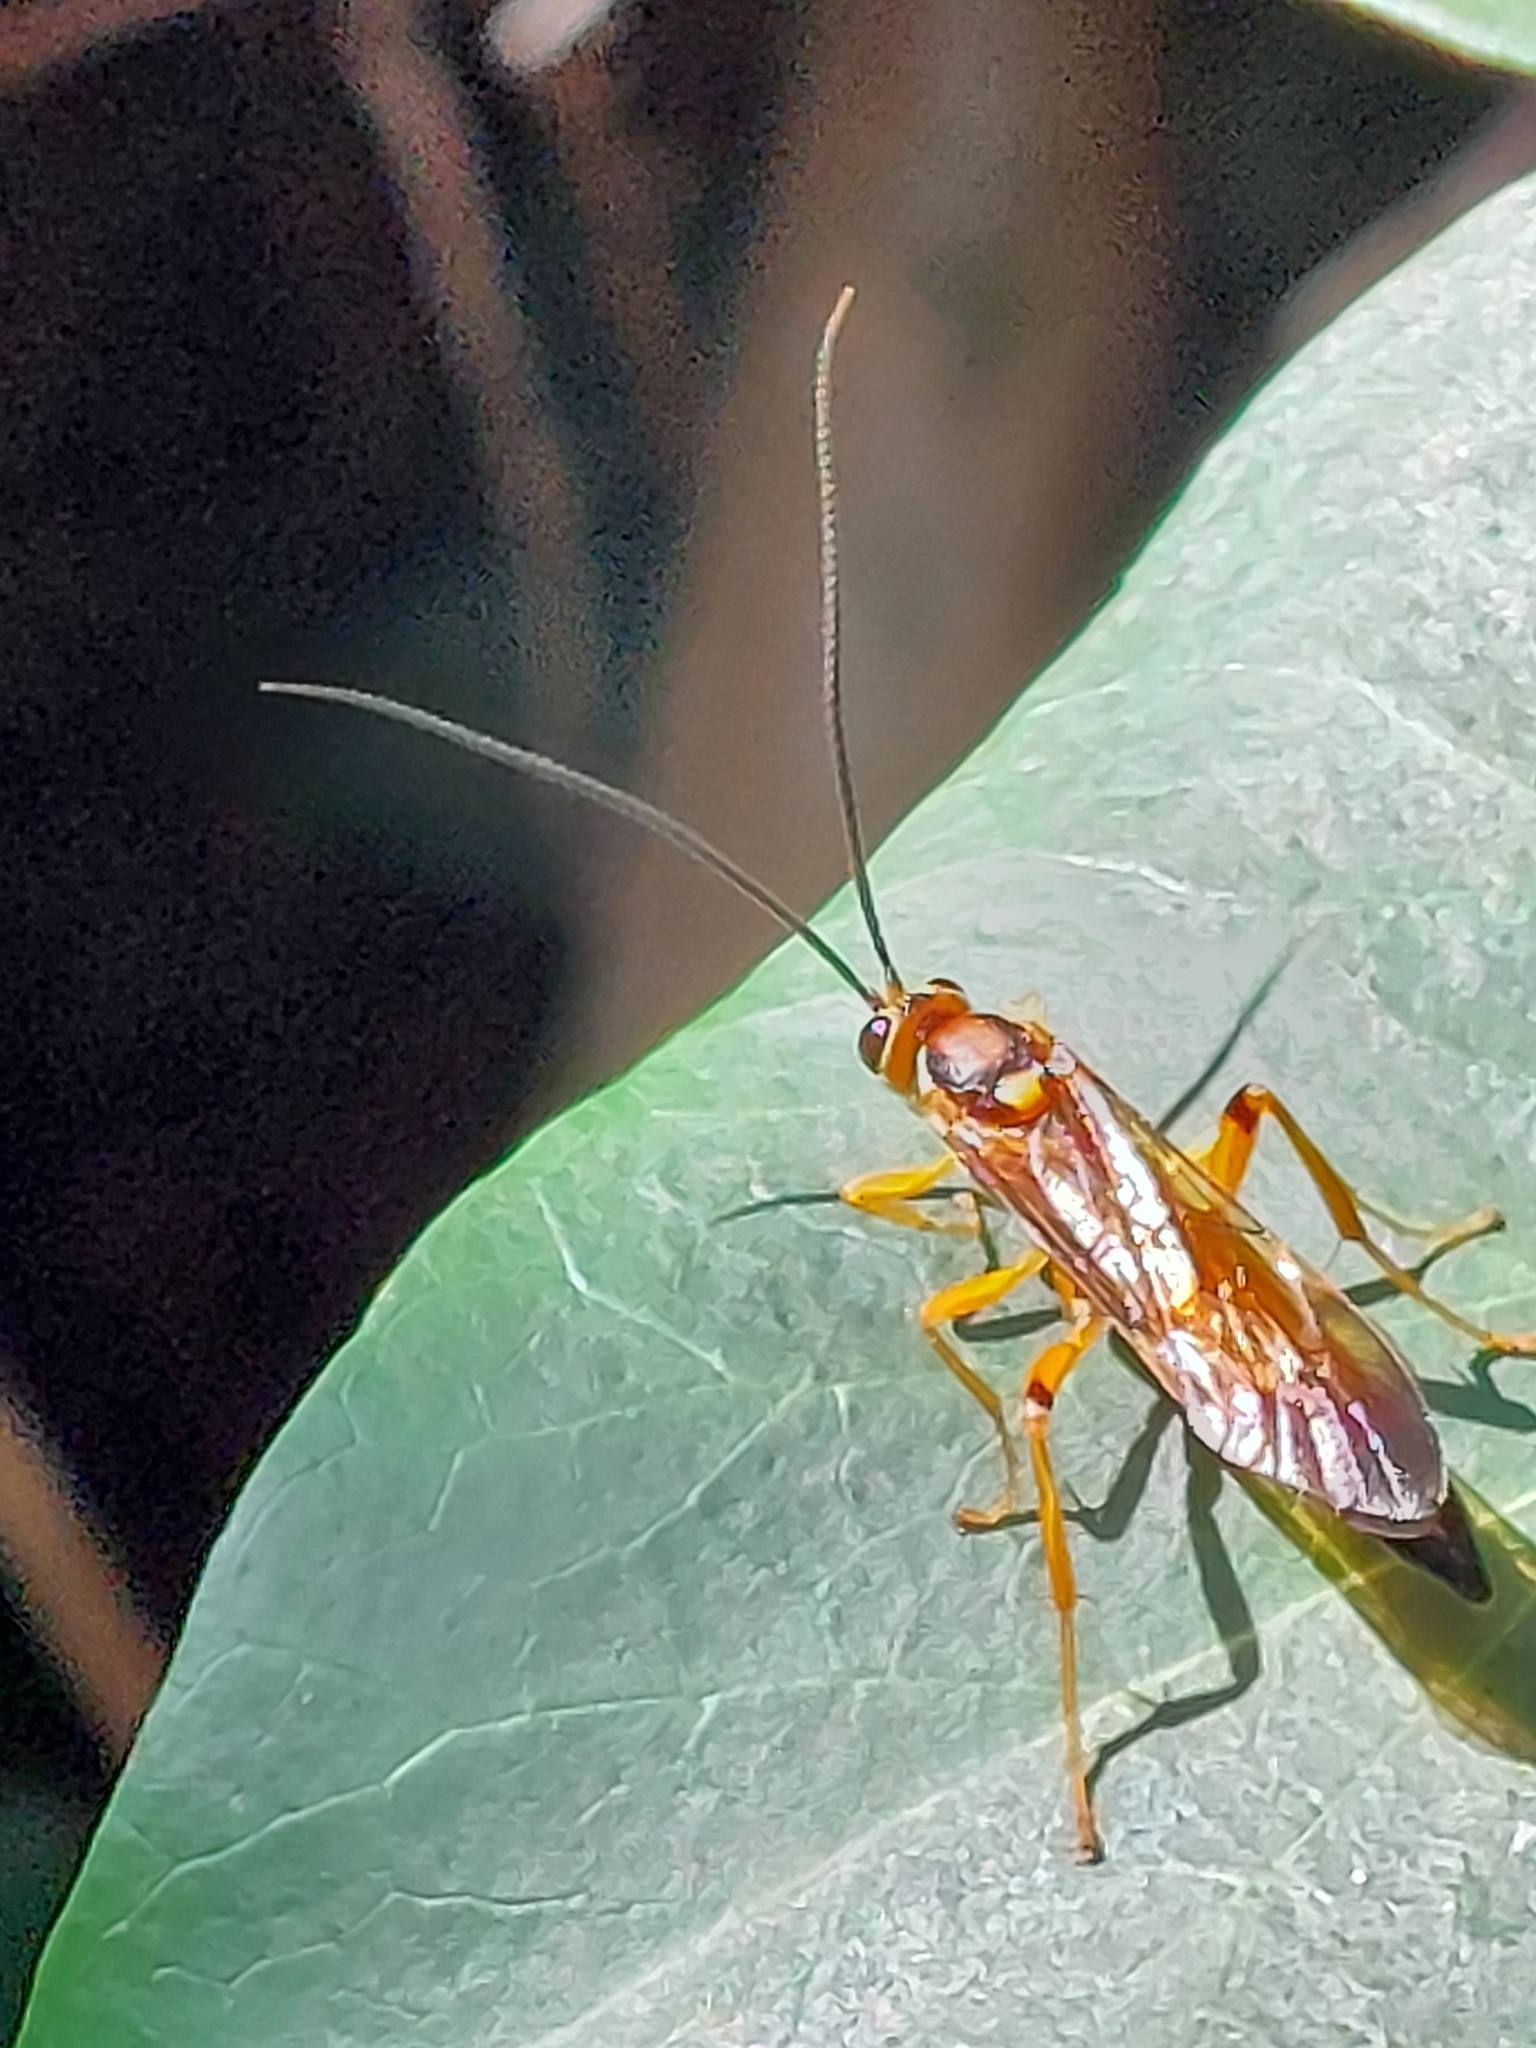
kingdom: Animalia
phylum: Arthropoda
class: Insecta
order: Hymenoptera
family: Ichneumonidae
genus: Lymantrichneumon
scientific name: Lymantrichneumon disparis
